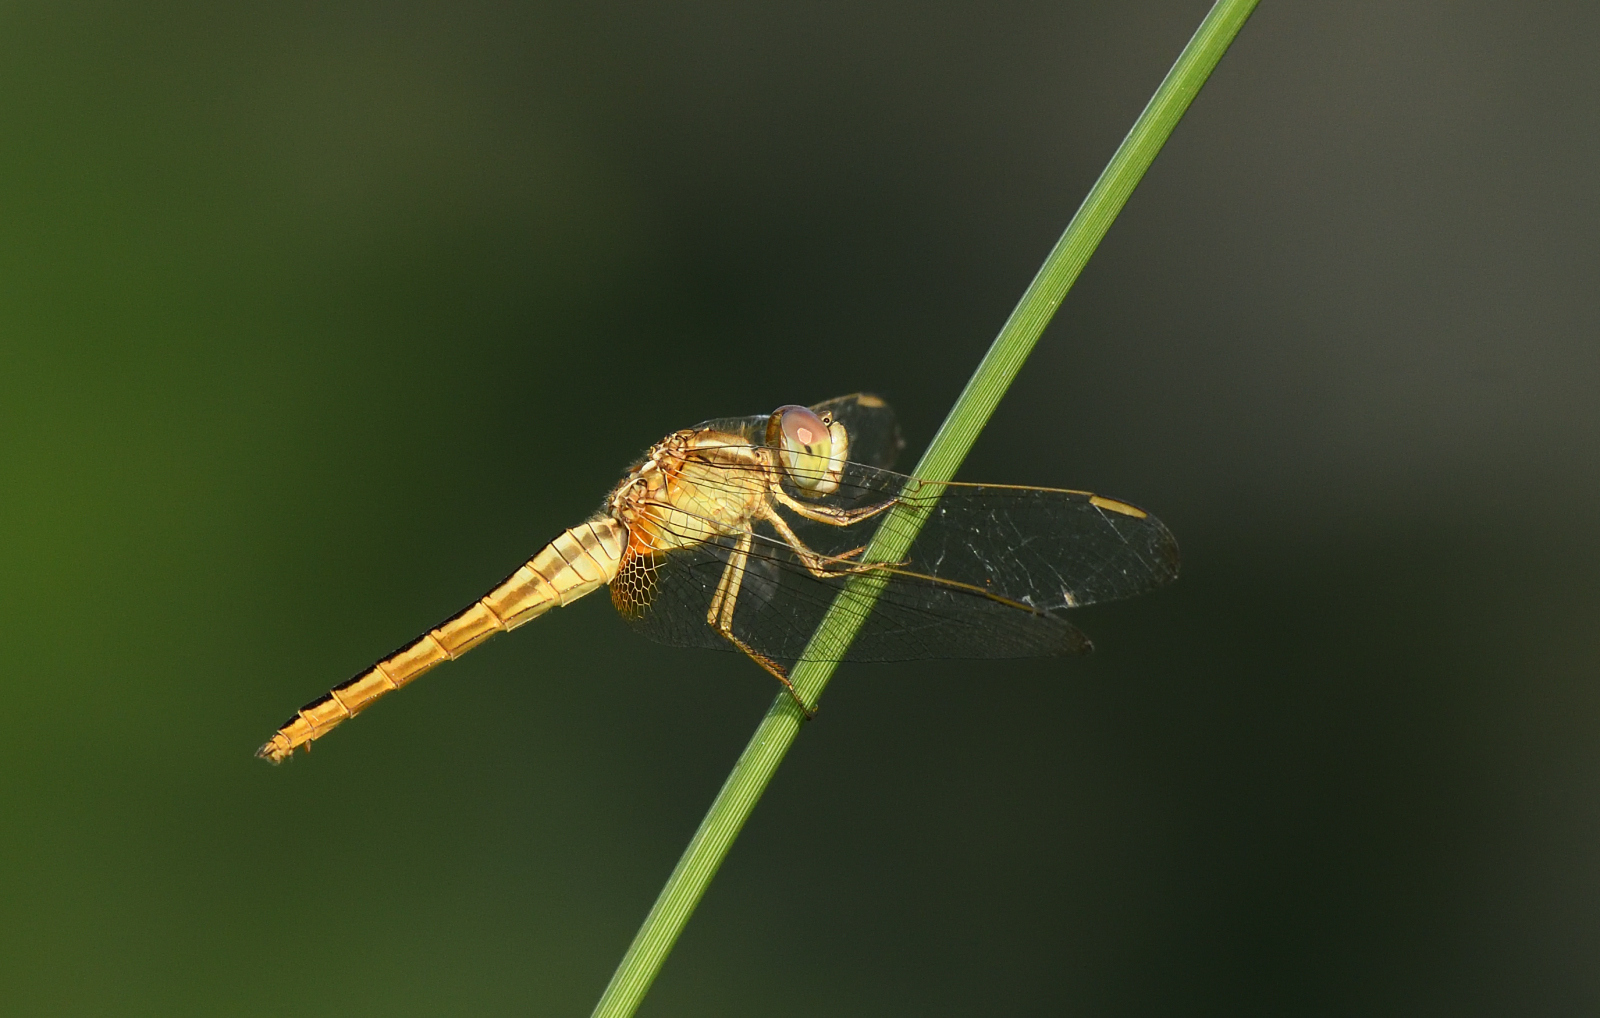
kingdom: Animalia
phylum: Arthropoda
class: Insecta
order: Odonata
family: Libellulidae
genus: Crocothemis
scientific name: Crocothemis servilia
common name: Scarlet skimmer
